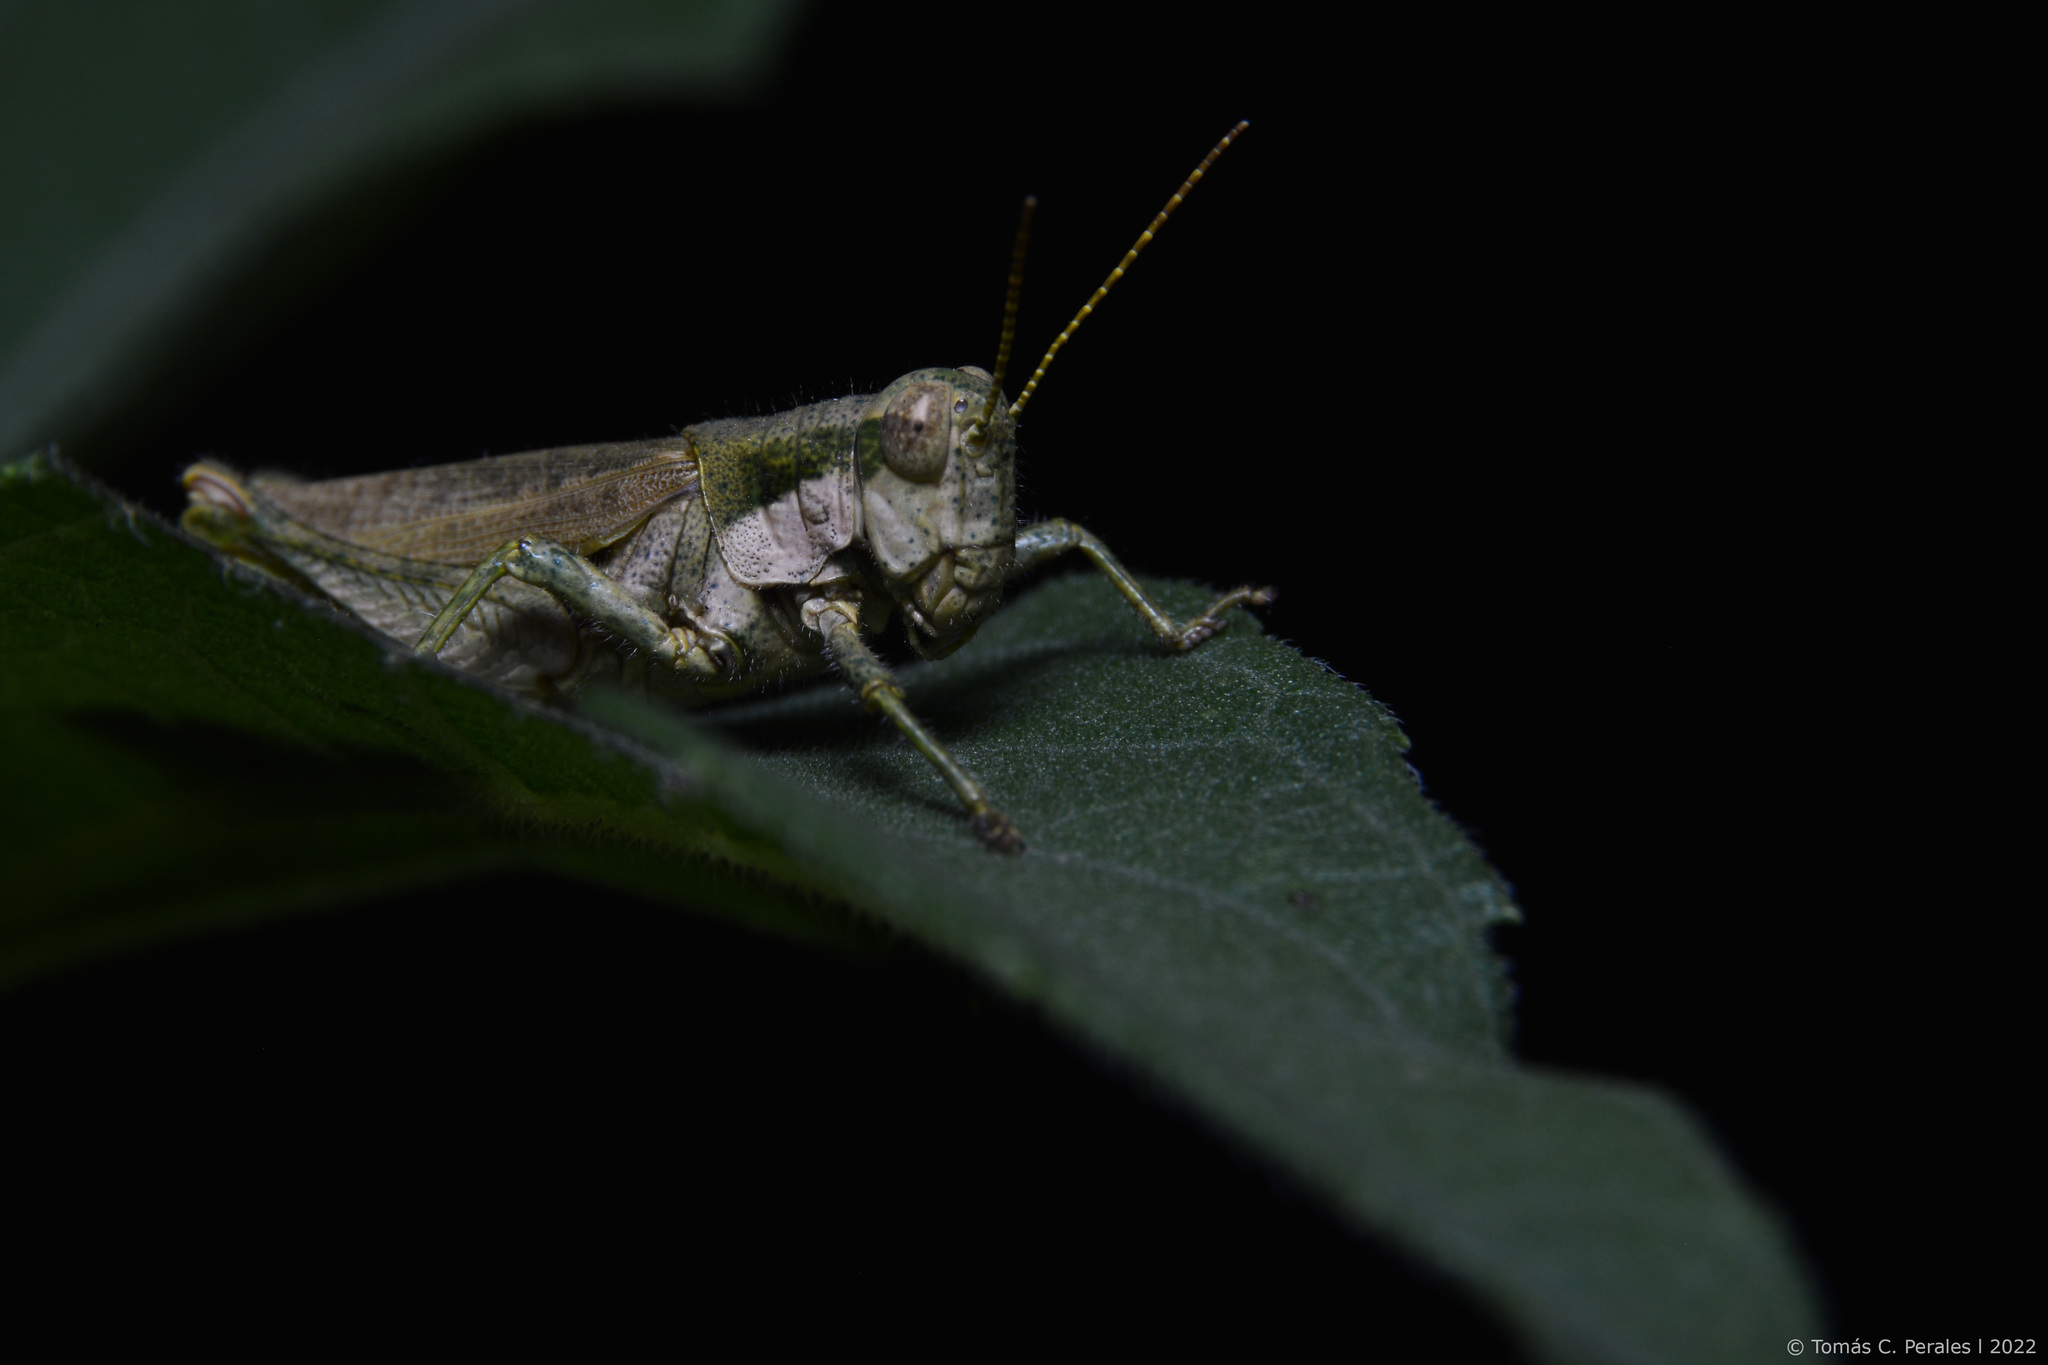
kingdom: Animalia
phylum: Arthropoda
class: Insecta
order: Orthoptera
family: Acrididae
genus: Ronderosia
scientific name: Ronderosia bergii
